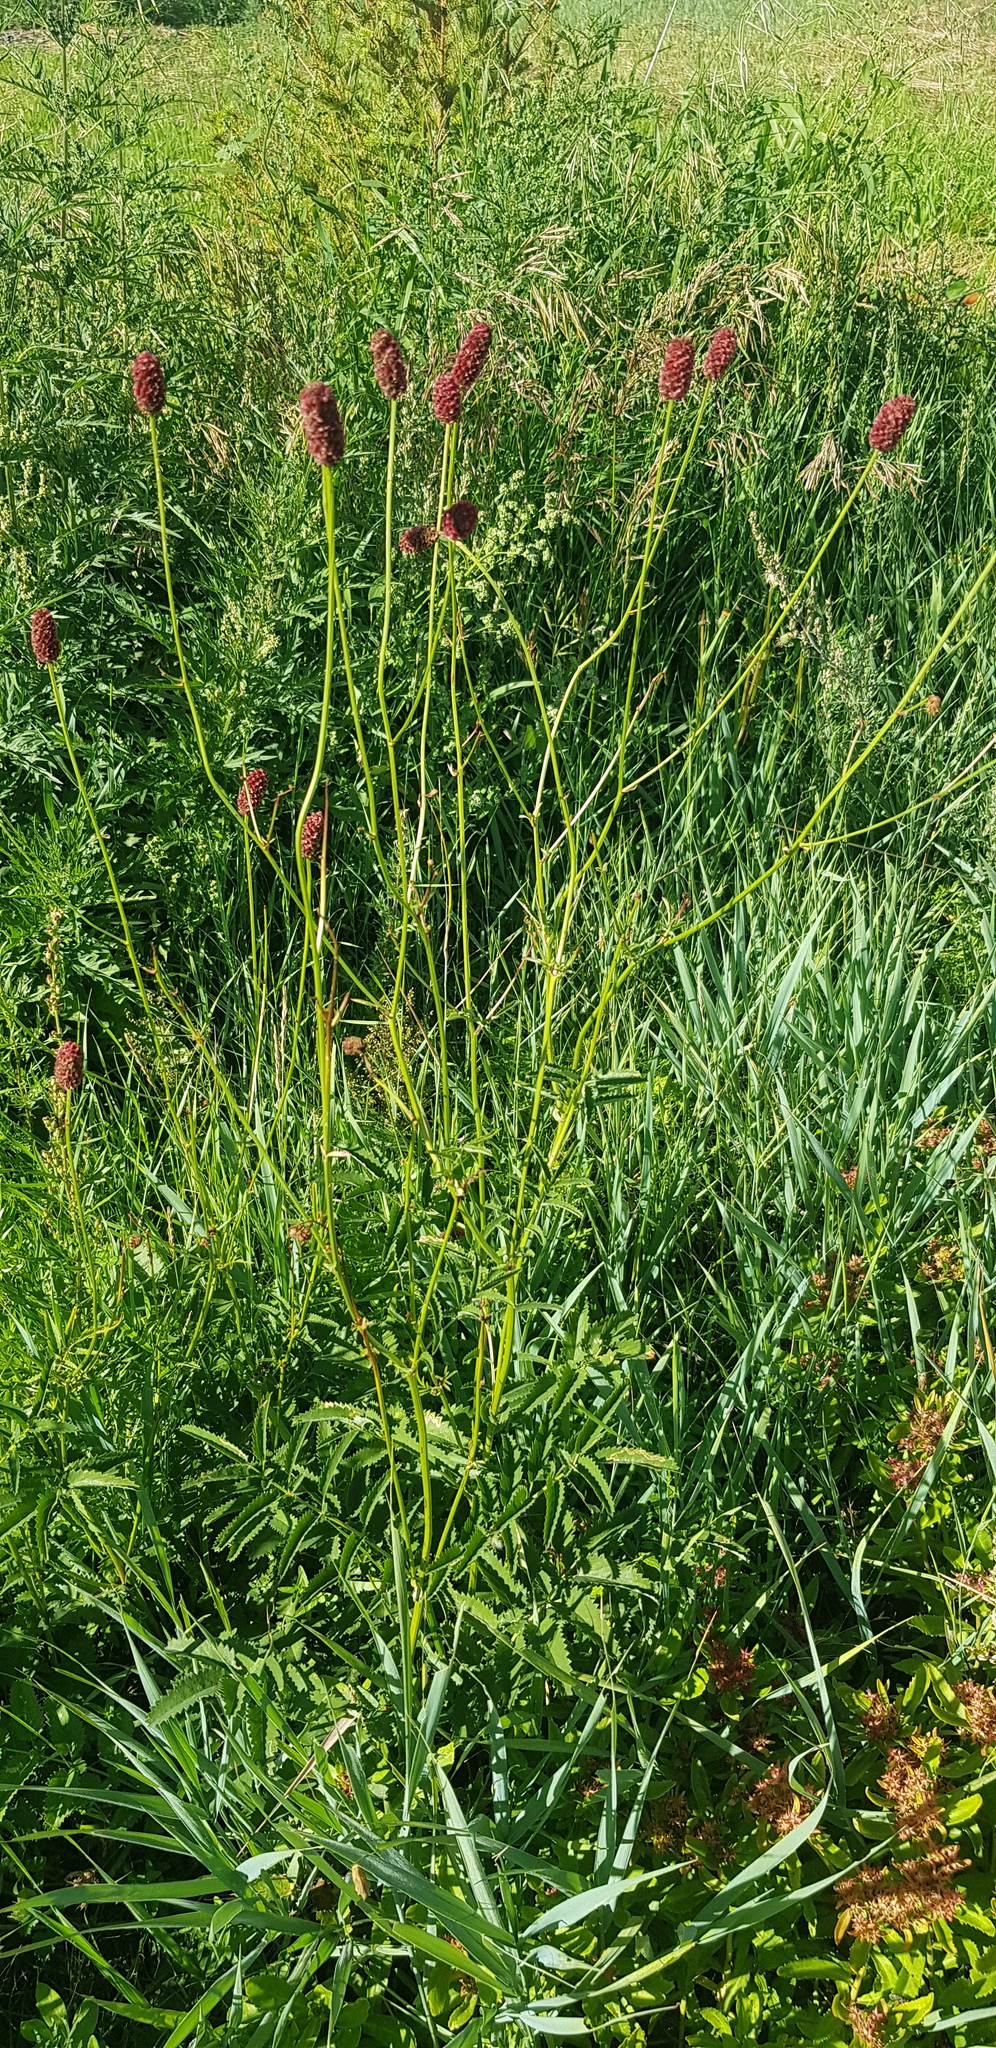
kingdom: Plantae
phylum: Tracheophyta
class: Magnoliopsida
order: Rosales
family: Rosaceae
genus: Sanguisorba
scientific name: Sanguisorba officinalis
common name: Great burnet
